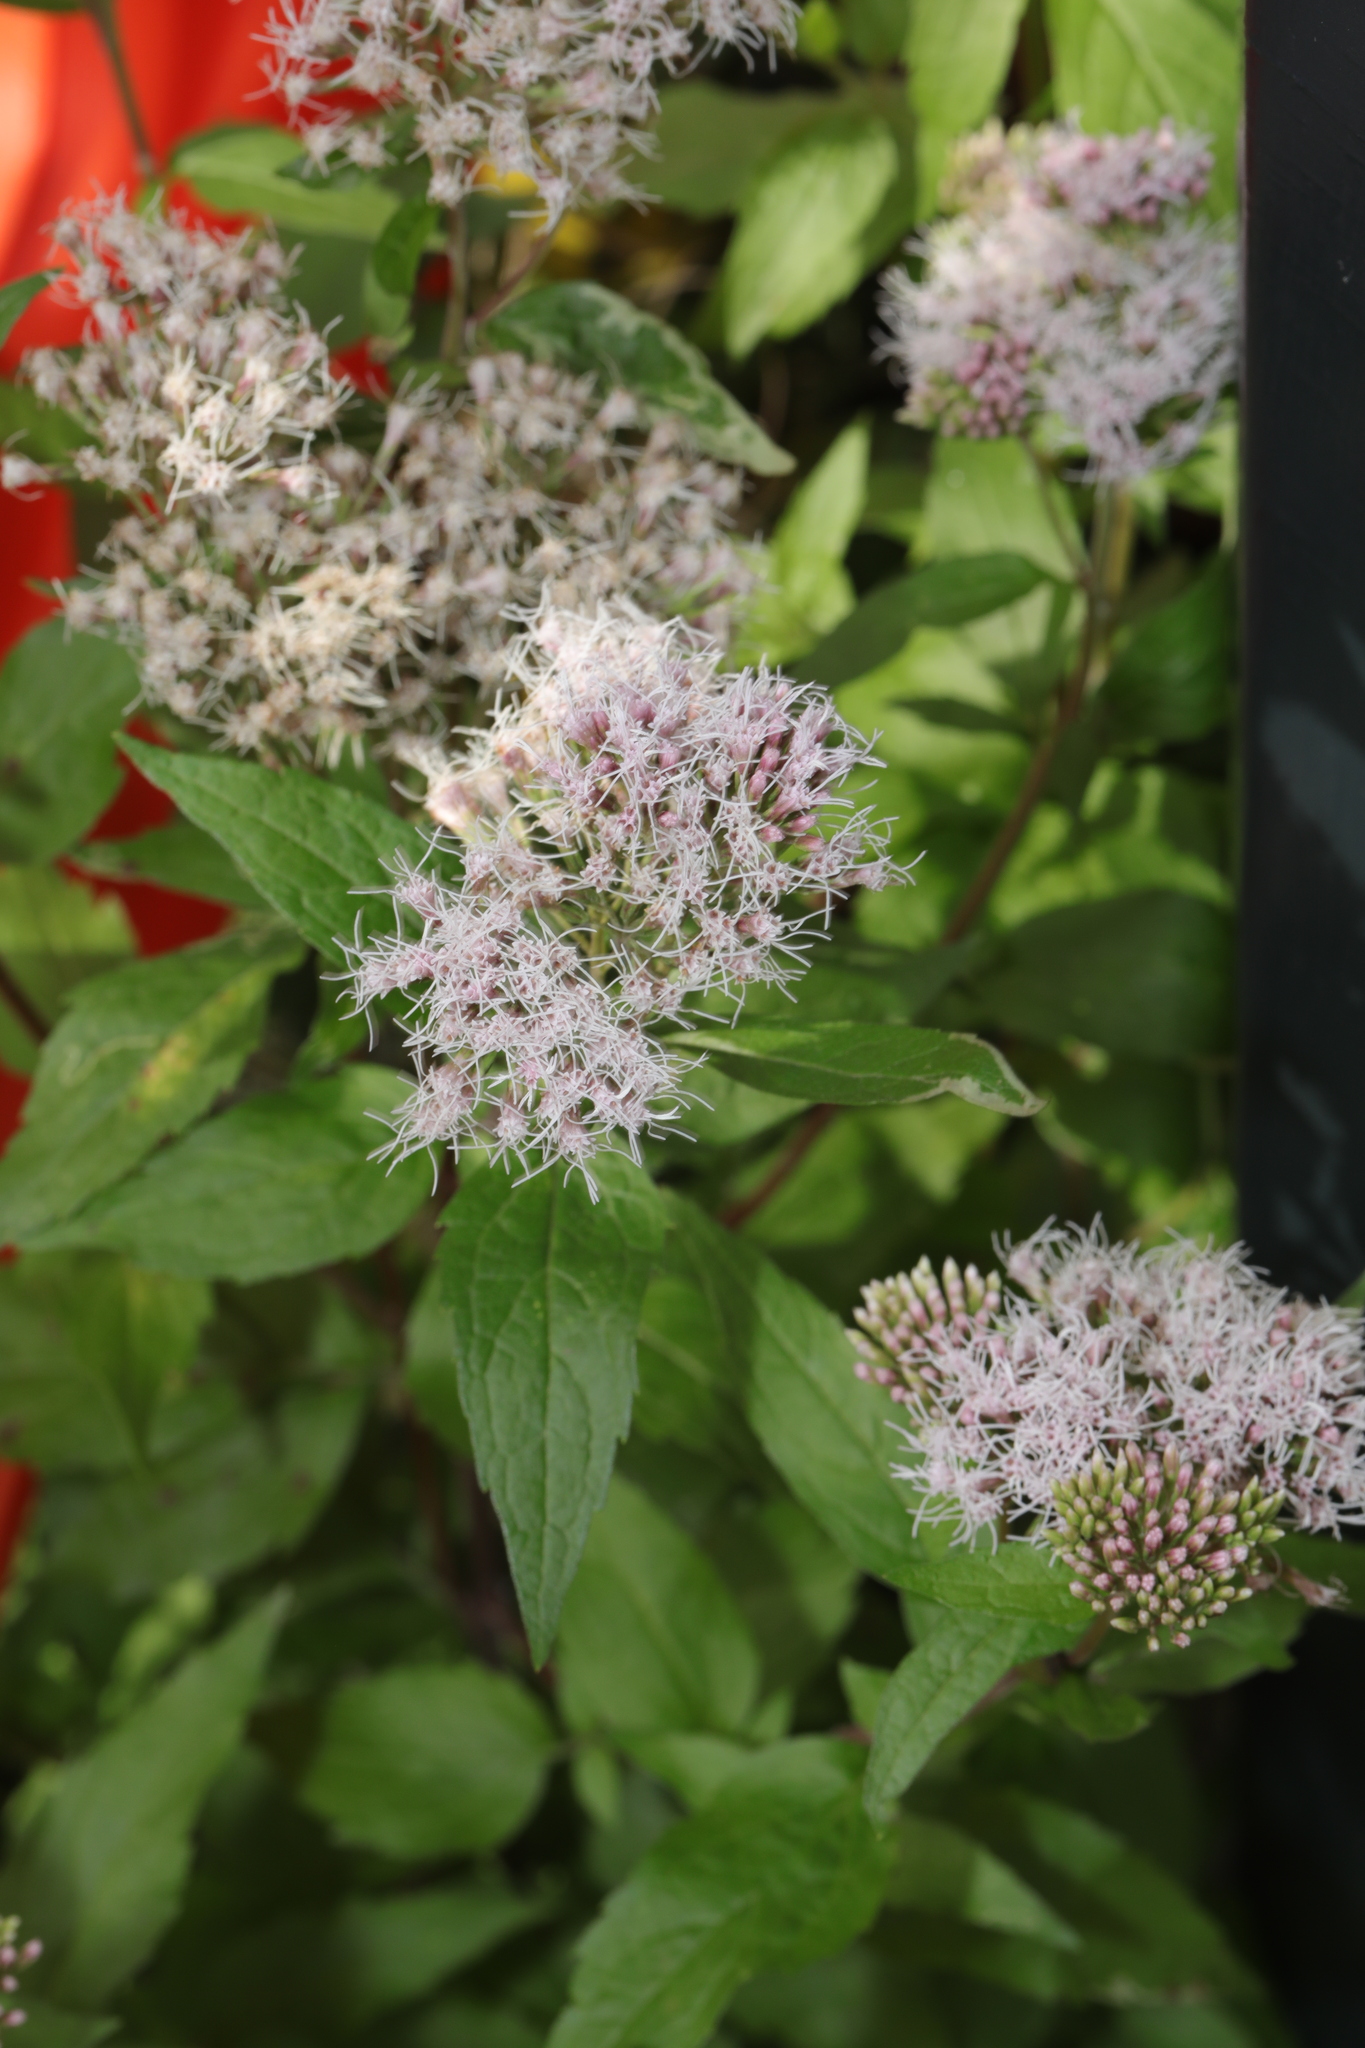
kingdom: Plantae
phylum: Tracheophyta
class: Magnoliopsida
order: Asterales
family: Asteraceae
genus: Eupatorium
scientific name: Eupatorium cannabinum
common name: Hemp-agrimony
